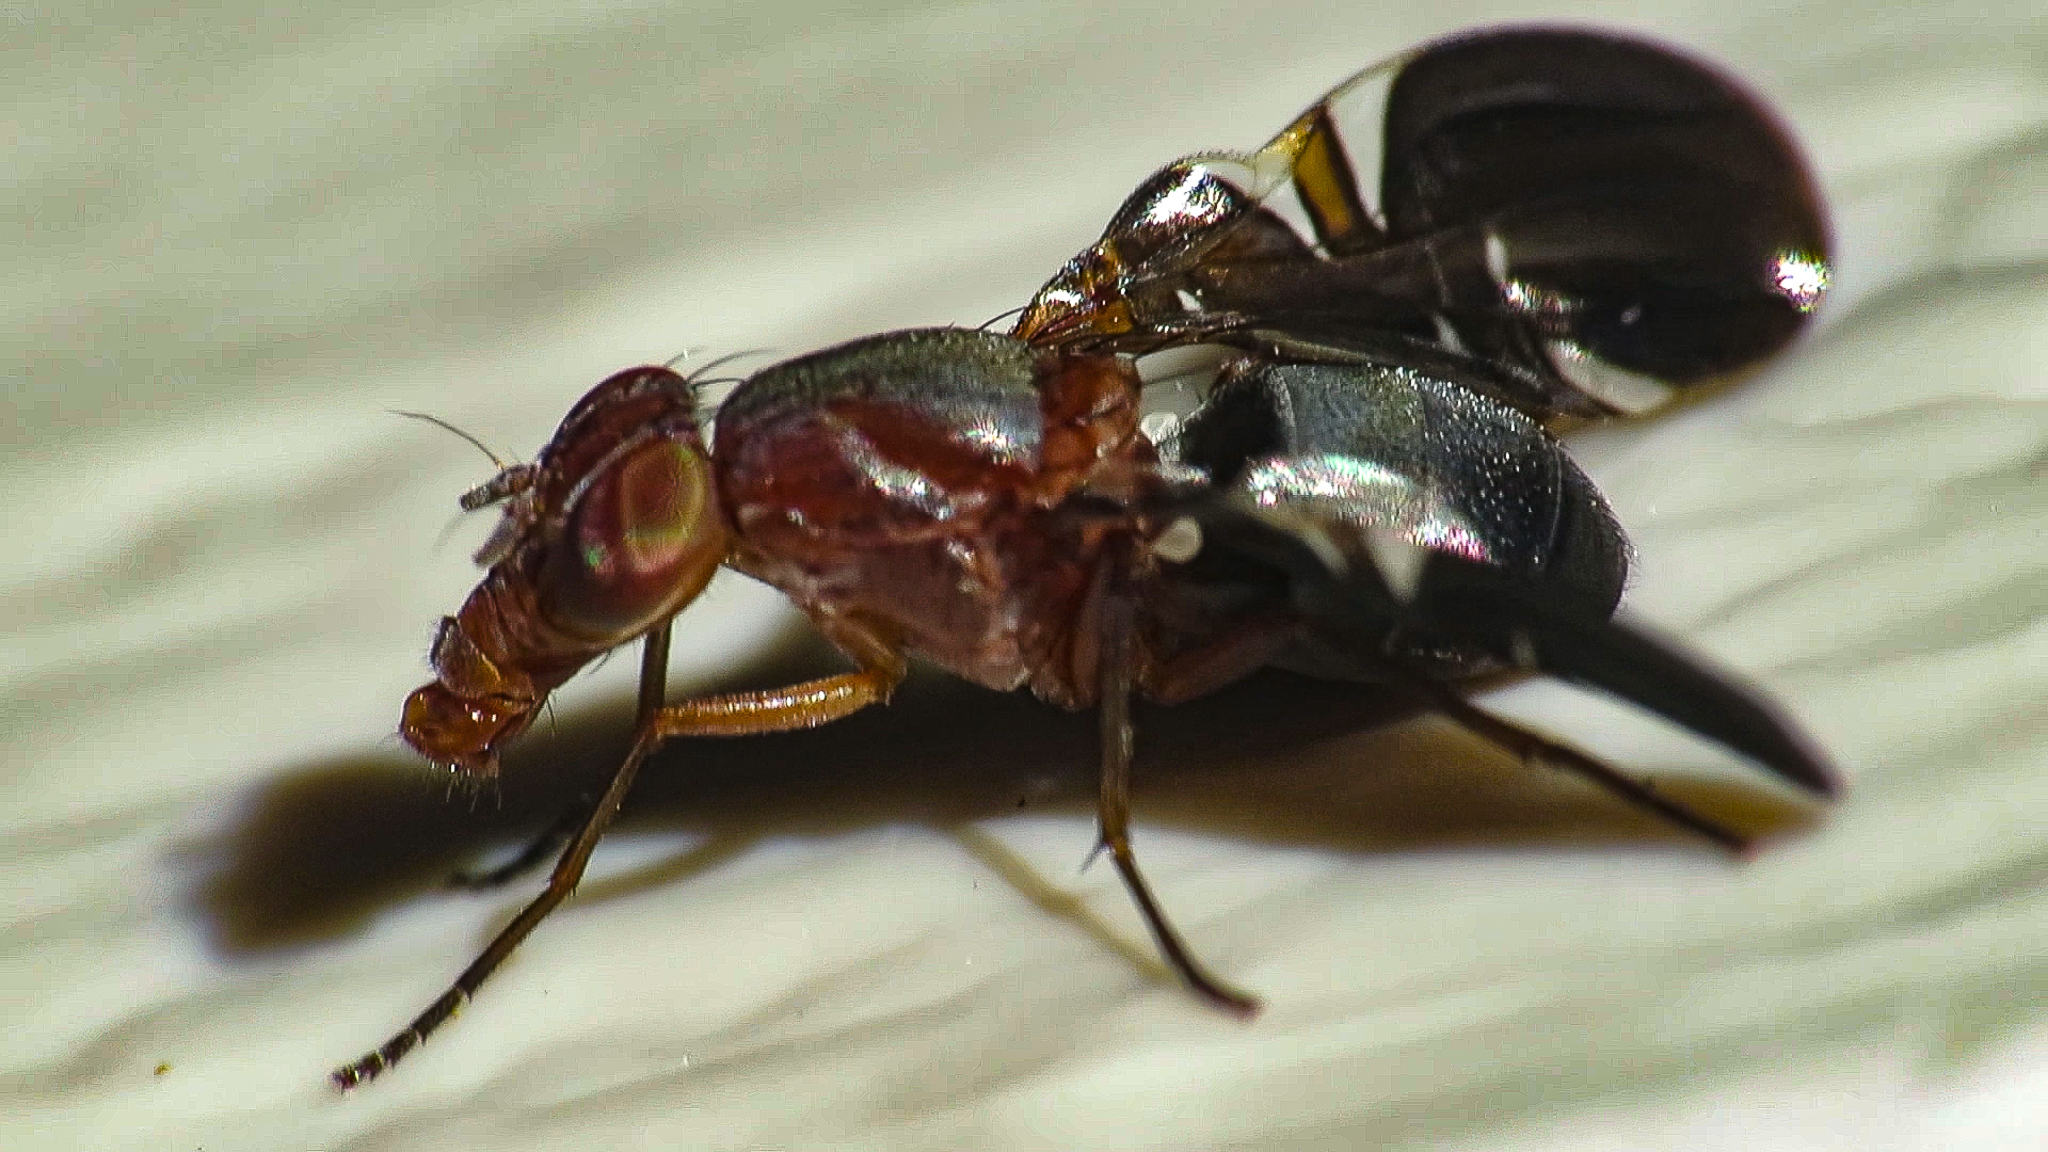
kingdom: Animalia
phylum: Arthropoda
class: Insecta
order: Diptera
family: Ulidiidae
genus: Delphinia
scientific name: Delphinia picta
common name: Common picture-winged fly
